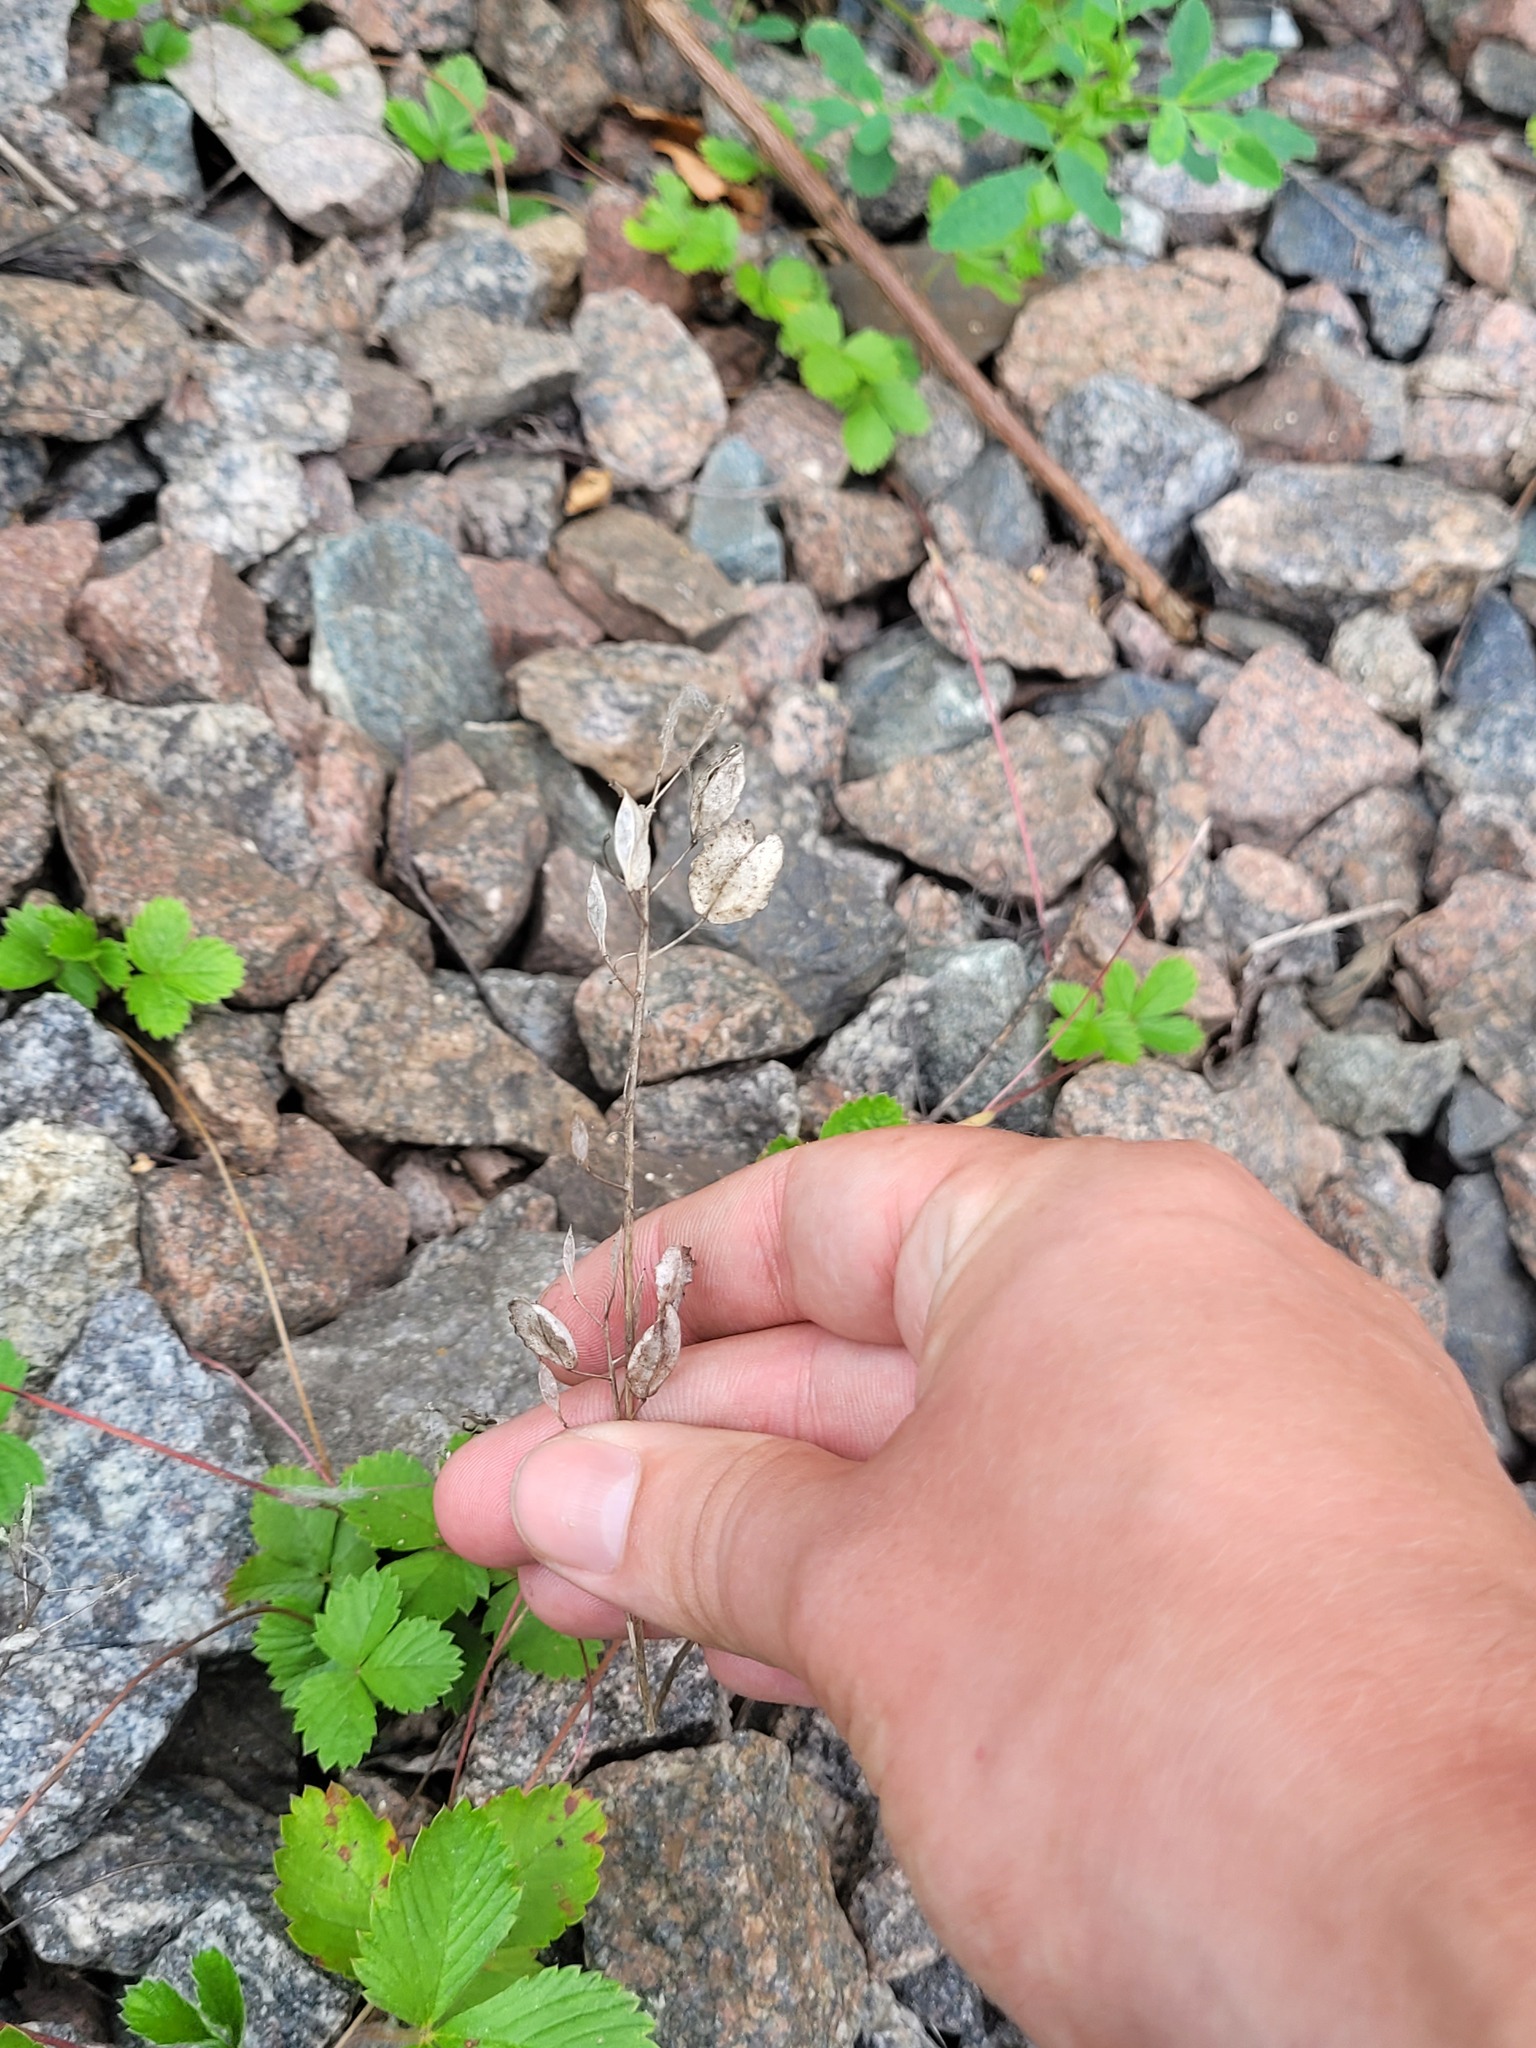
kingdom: Plantae
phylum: Tracheophyta
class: Magnoliopsida
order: Brassicales
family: Brassicaceae
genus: Thlaspi
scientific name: Thlaspi arvense
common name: Field pennycress
